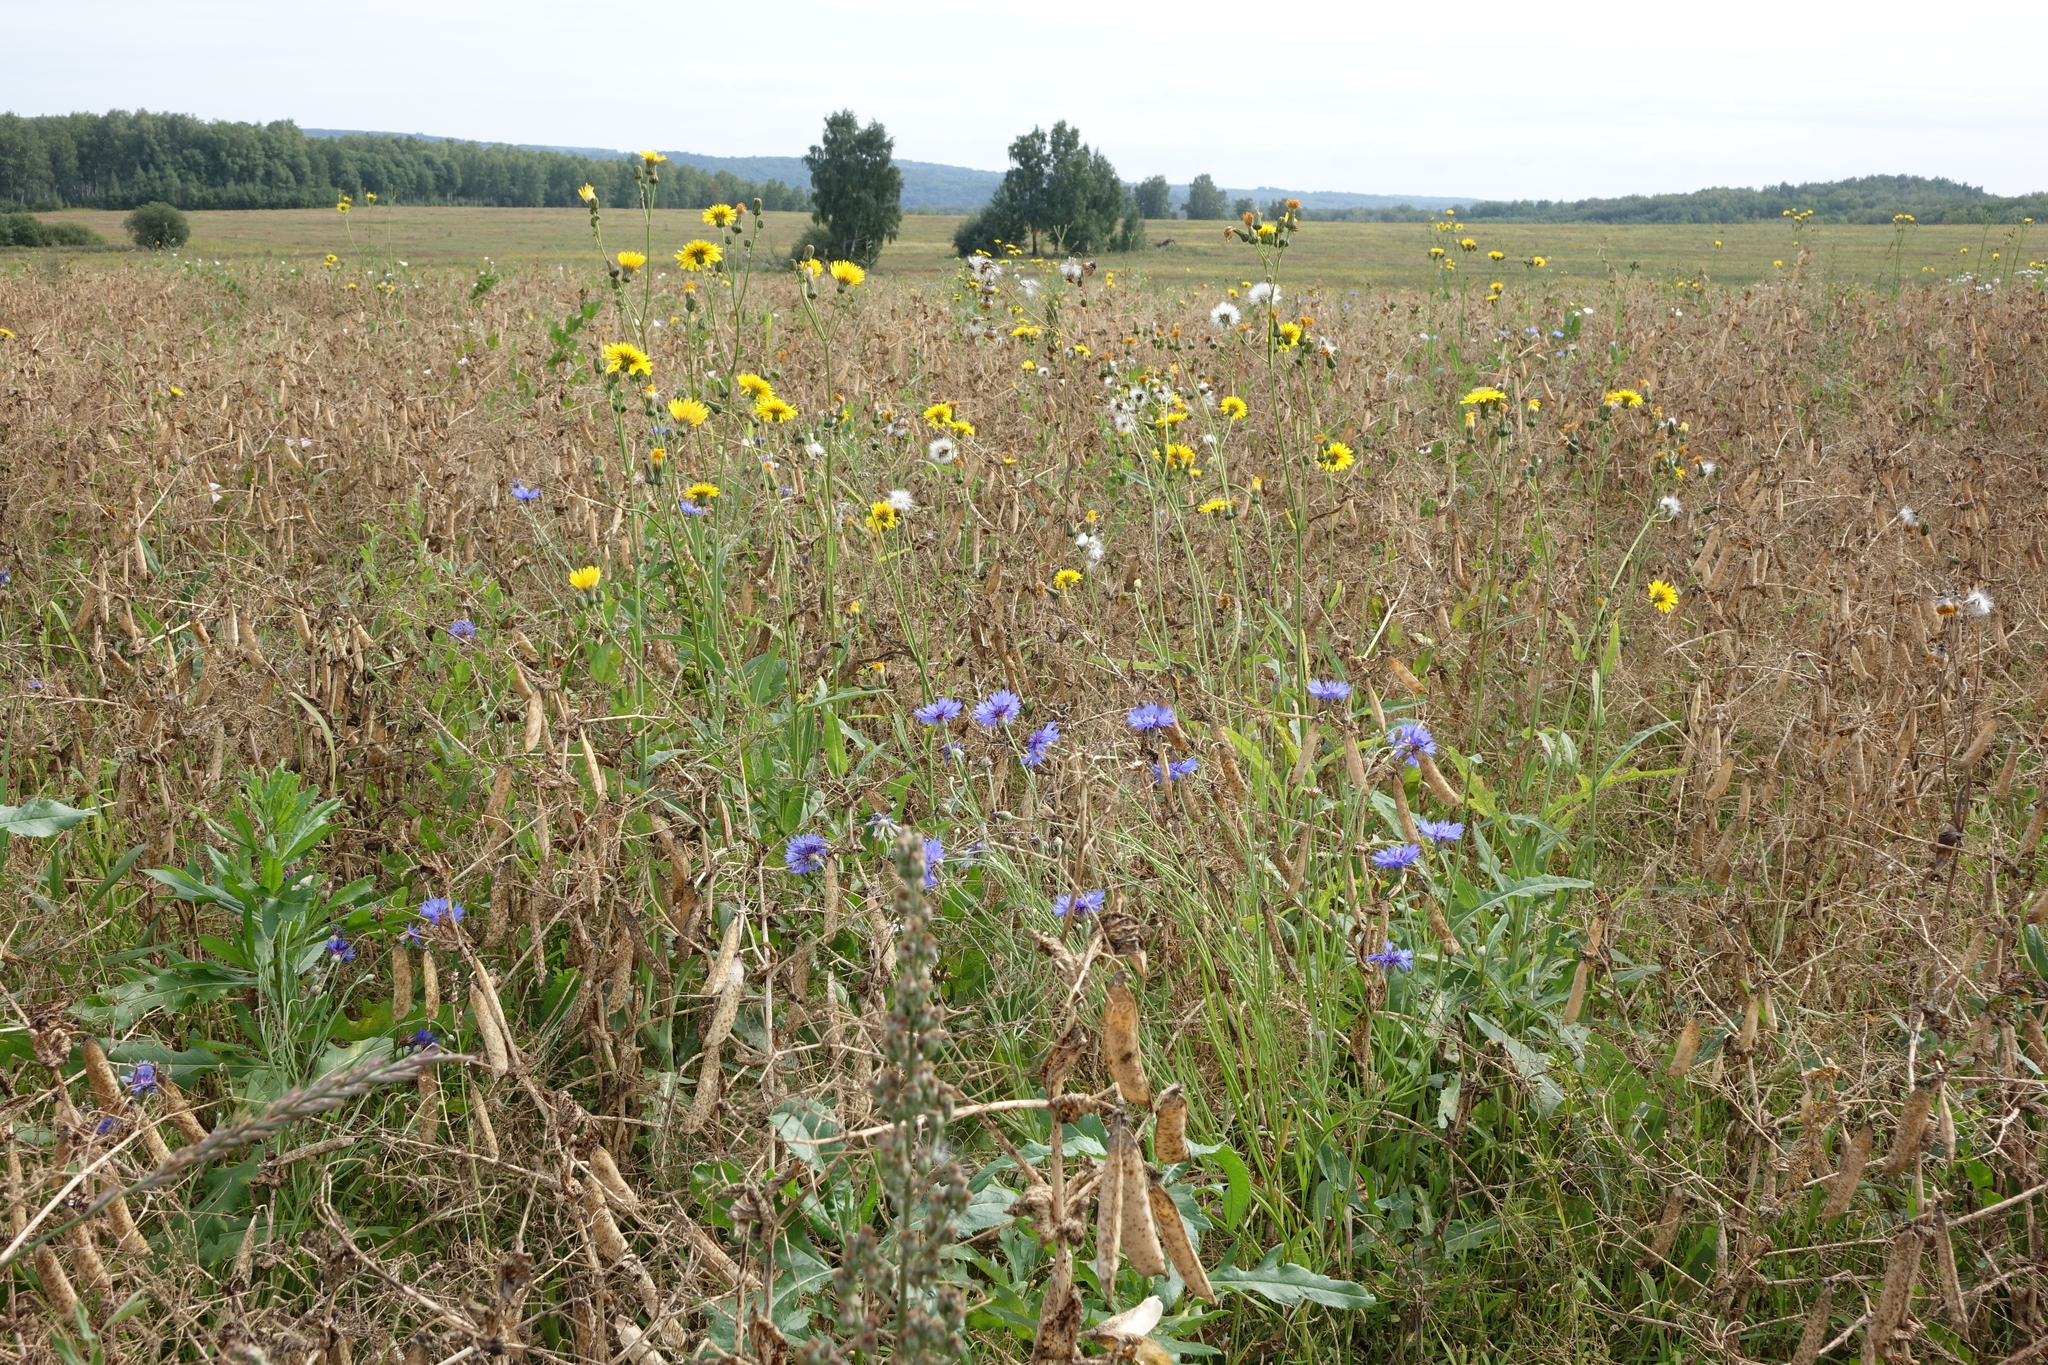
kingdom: Plantae
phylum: Tracheophyta
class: Magnoliopsida
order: Asterales
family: Asteraceae
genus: Sonchus
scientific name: Sonchus arvensis
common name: Perennial sow-thistle
